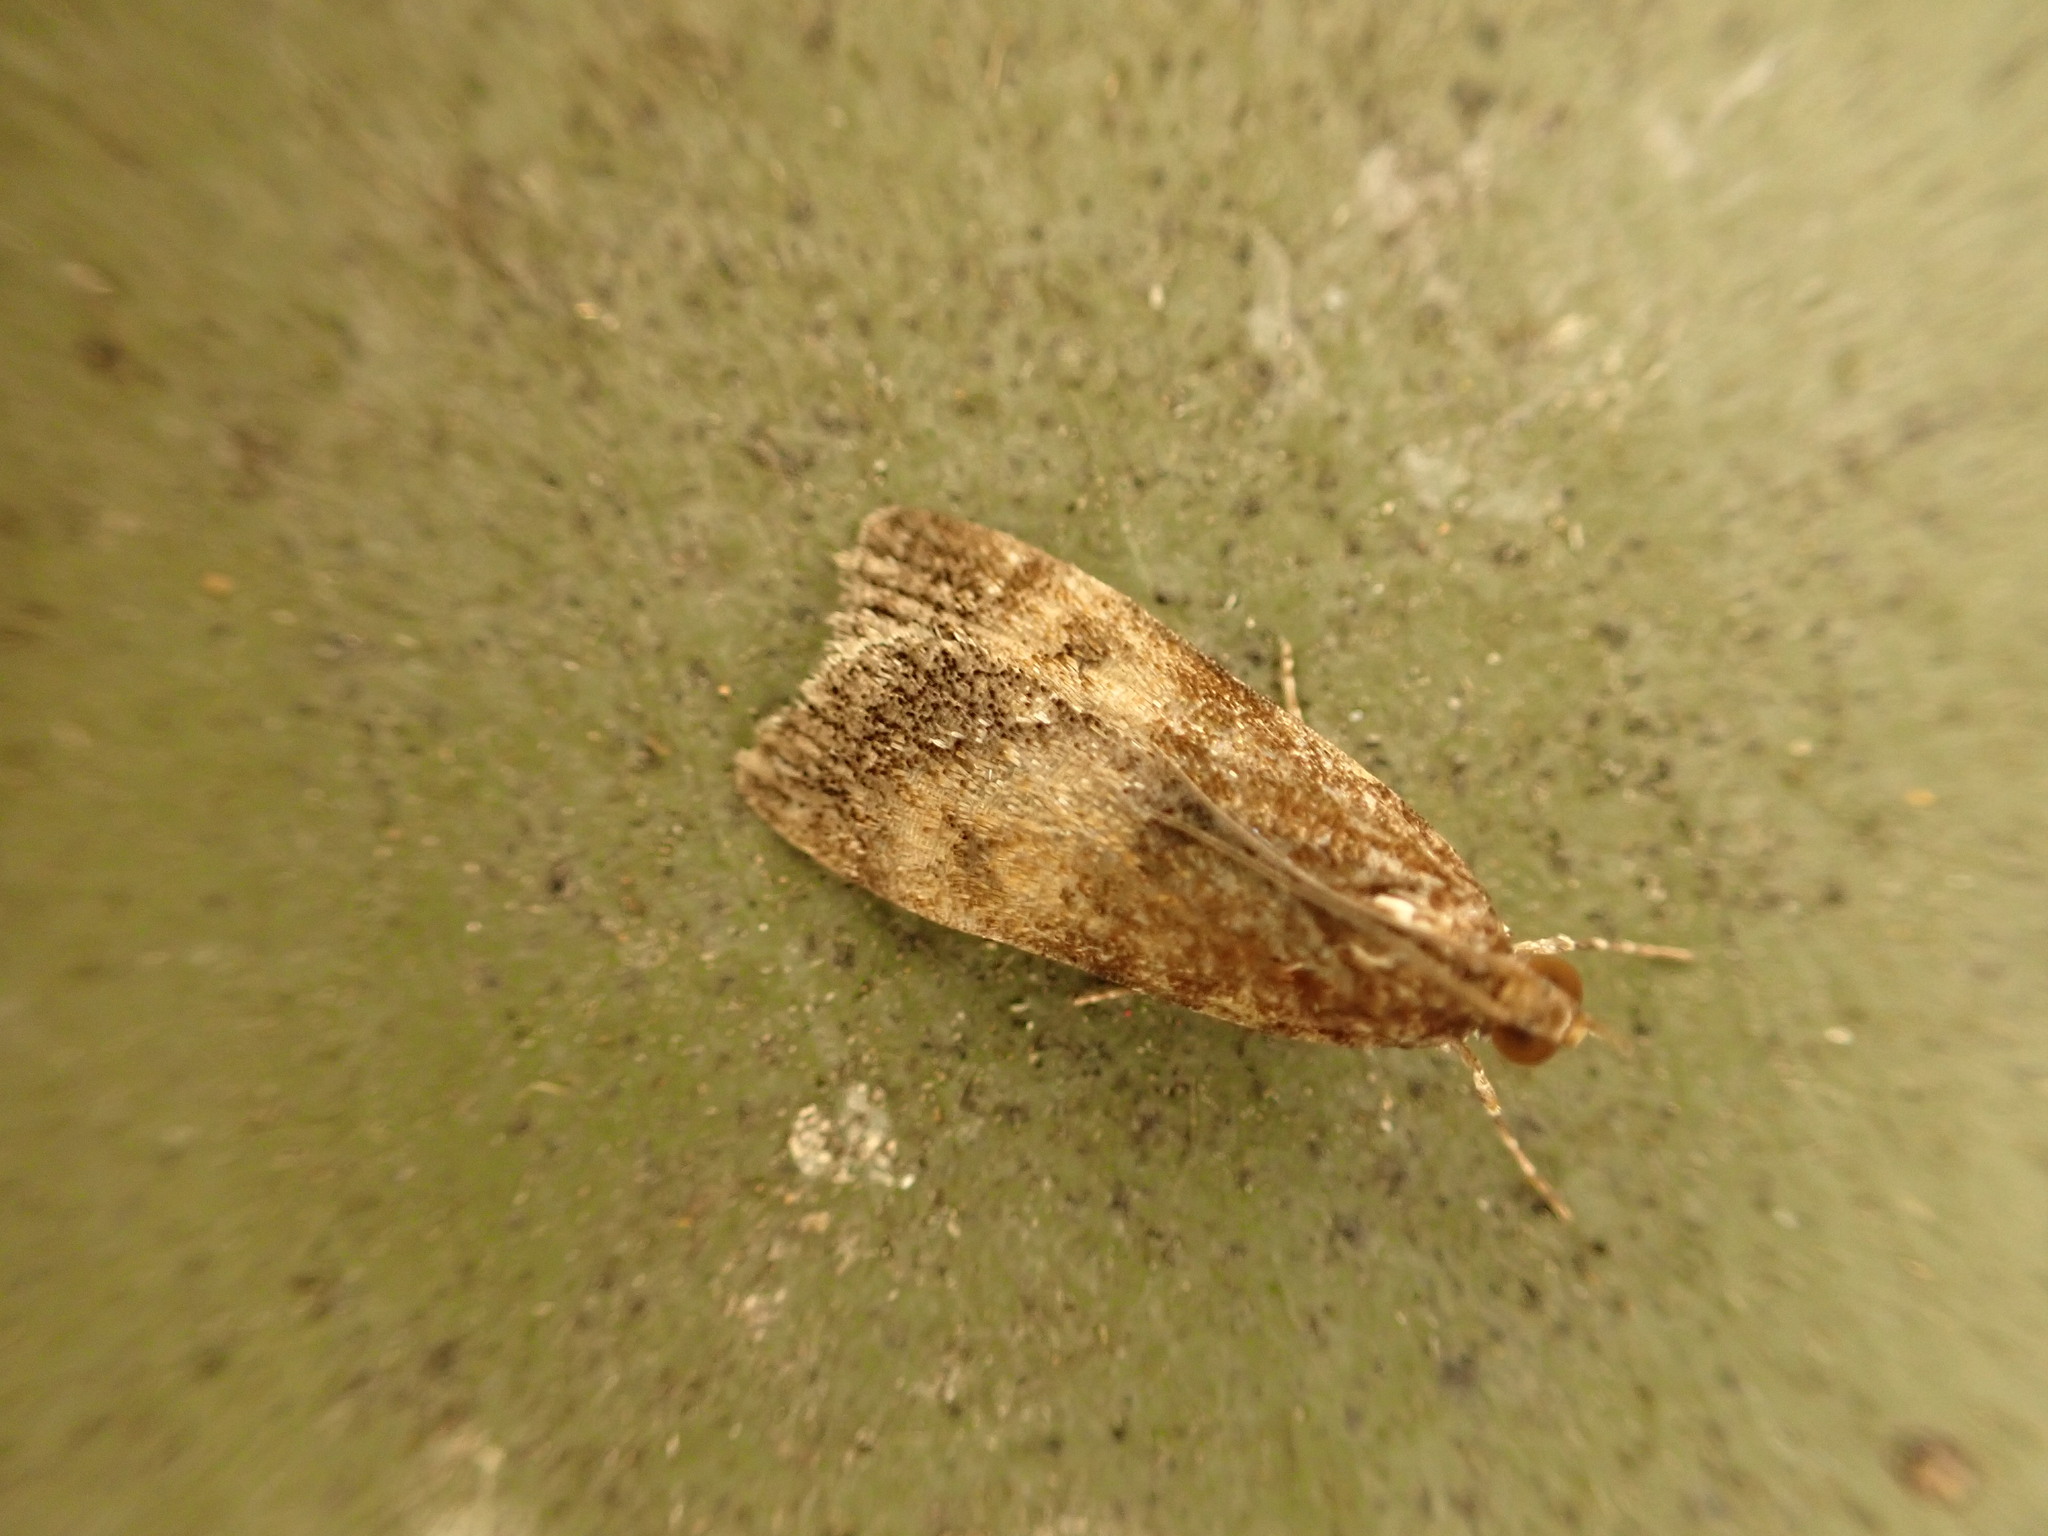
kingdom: Animalia
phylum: Arthropoda
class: Insecta
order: Lepidoptera
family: Crambidae
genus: Eudonia
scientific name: Eudonia asterisca
